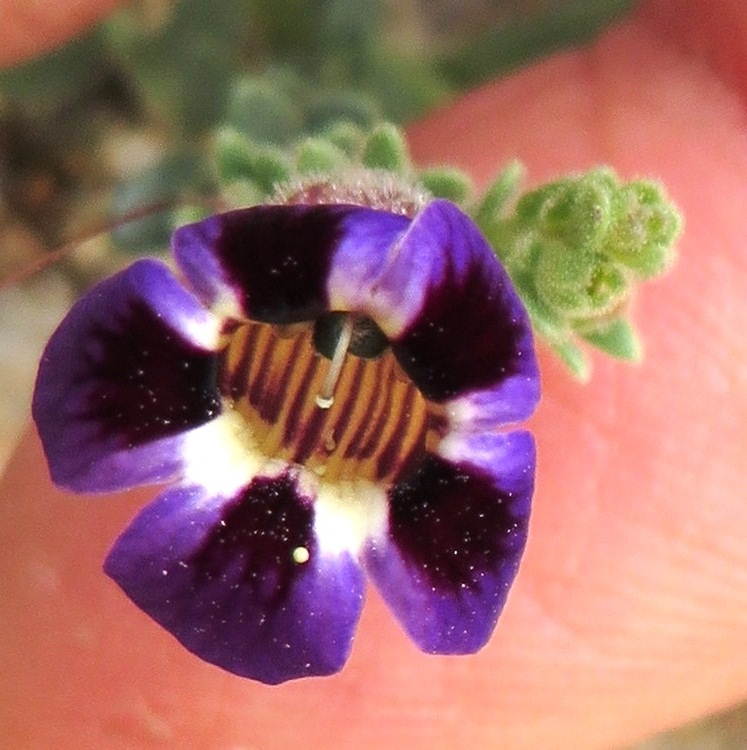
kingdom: Plantae
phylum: Tracheophyta
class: Magnoliopsida
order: Lamiales
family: Scrophulariaceae
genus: Peliostomum
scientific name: Peliostomum virgatum
